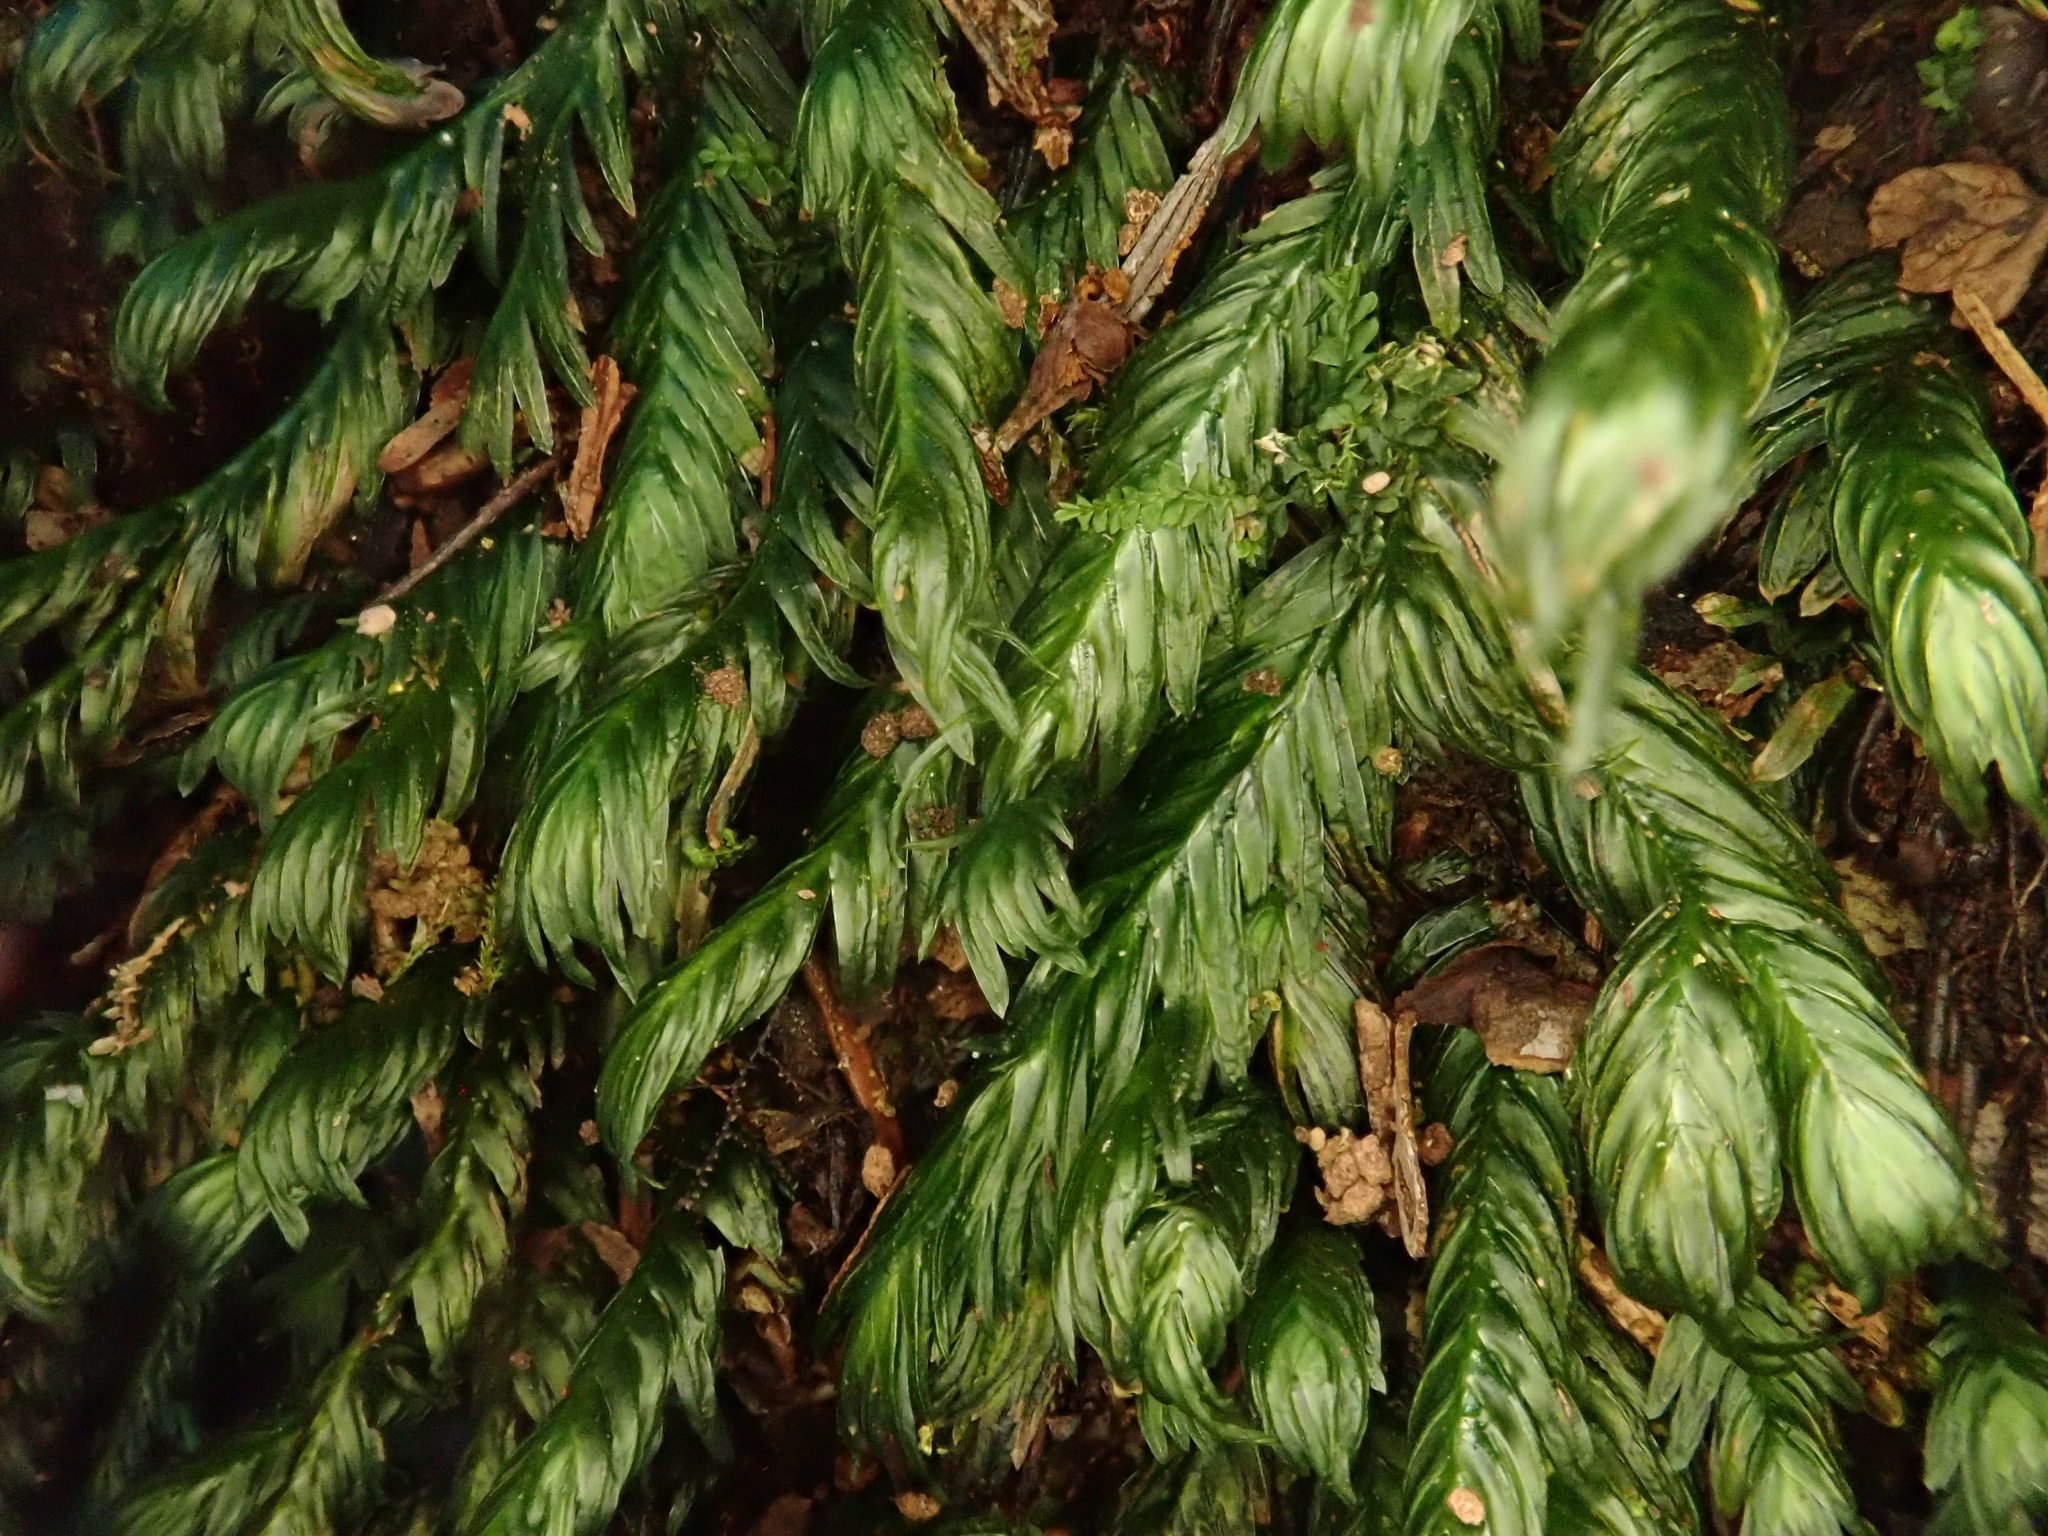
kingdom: Plantae
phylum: Bryophyta
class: Bryopsida
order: Dicranales
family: Fissidentaceae
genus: Fissidens
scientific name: Fissidens serrulatus
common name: Large atlantic pocket-moss
